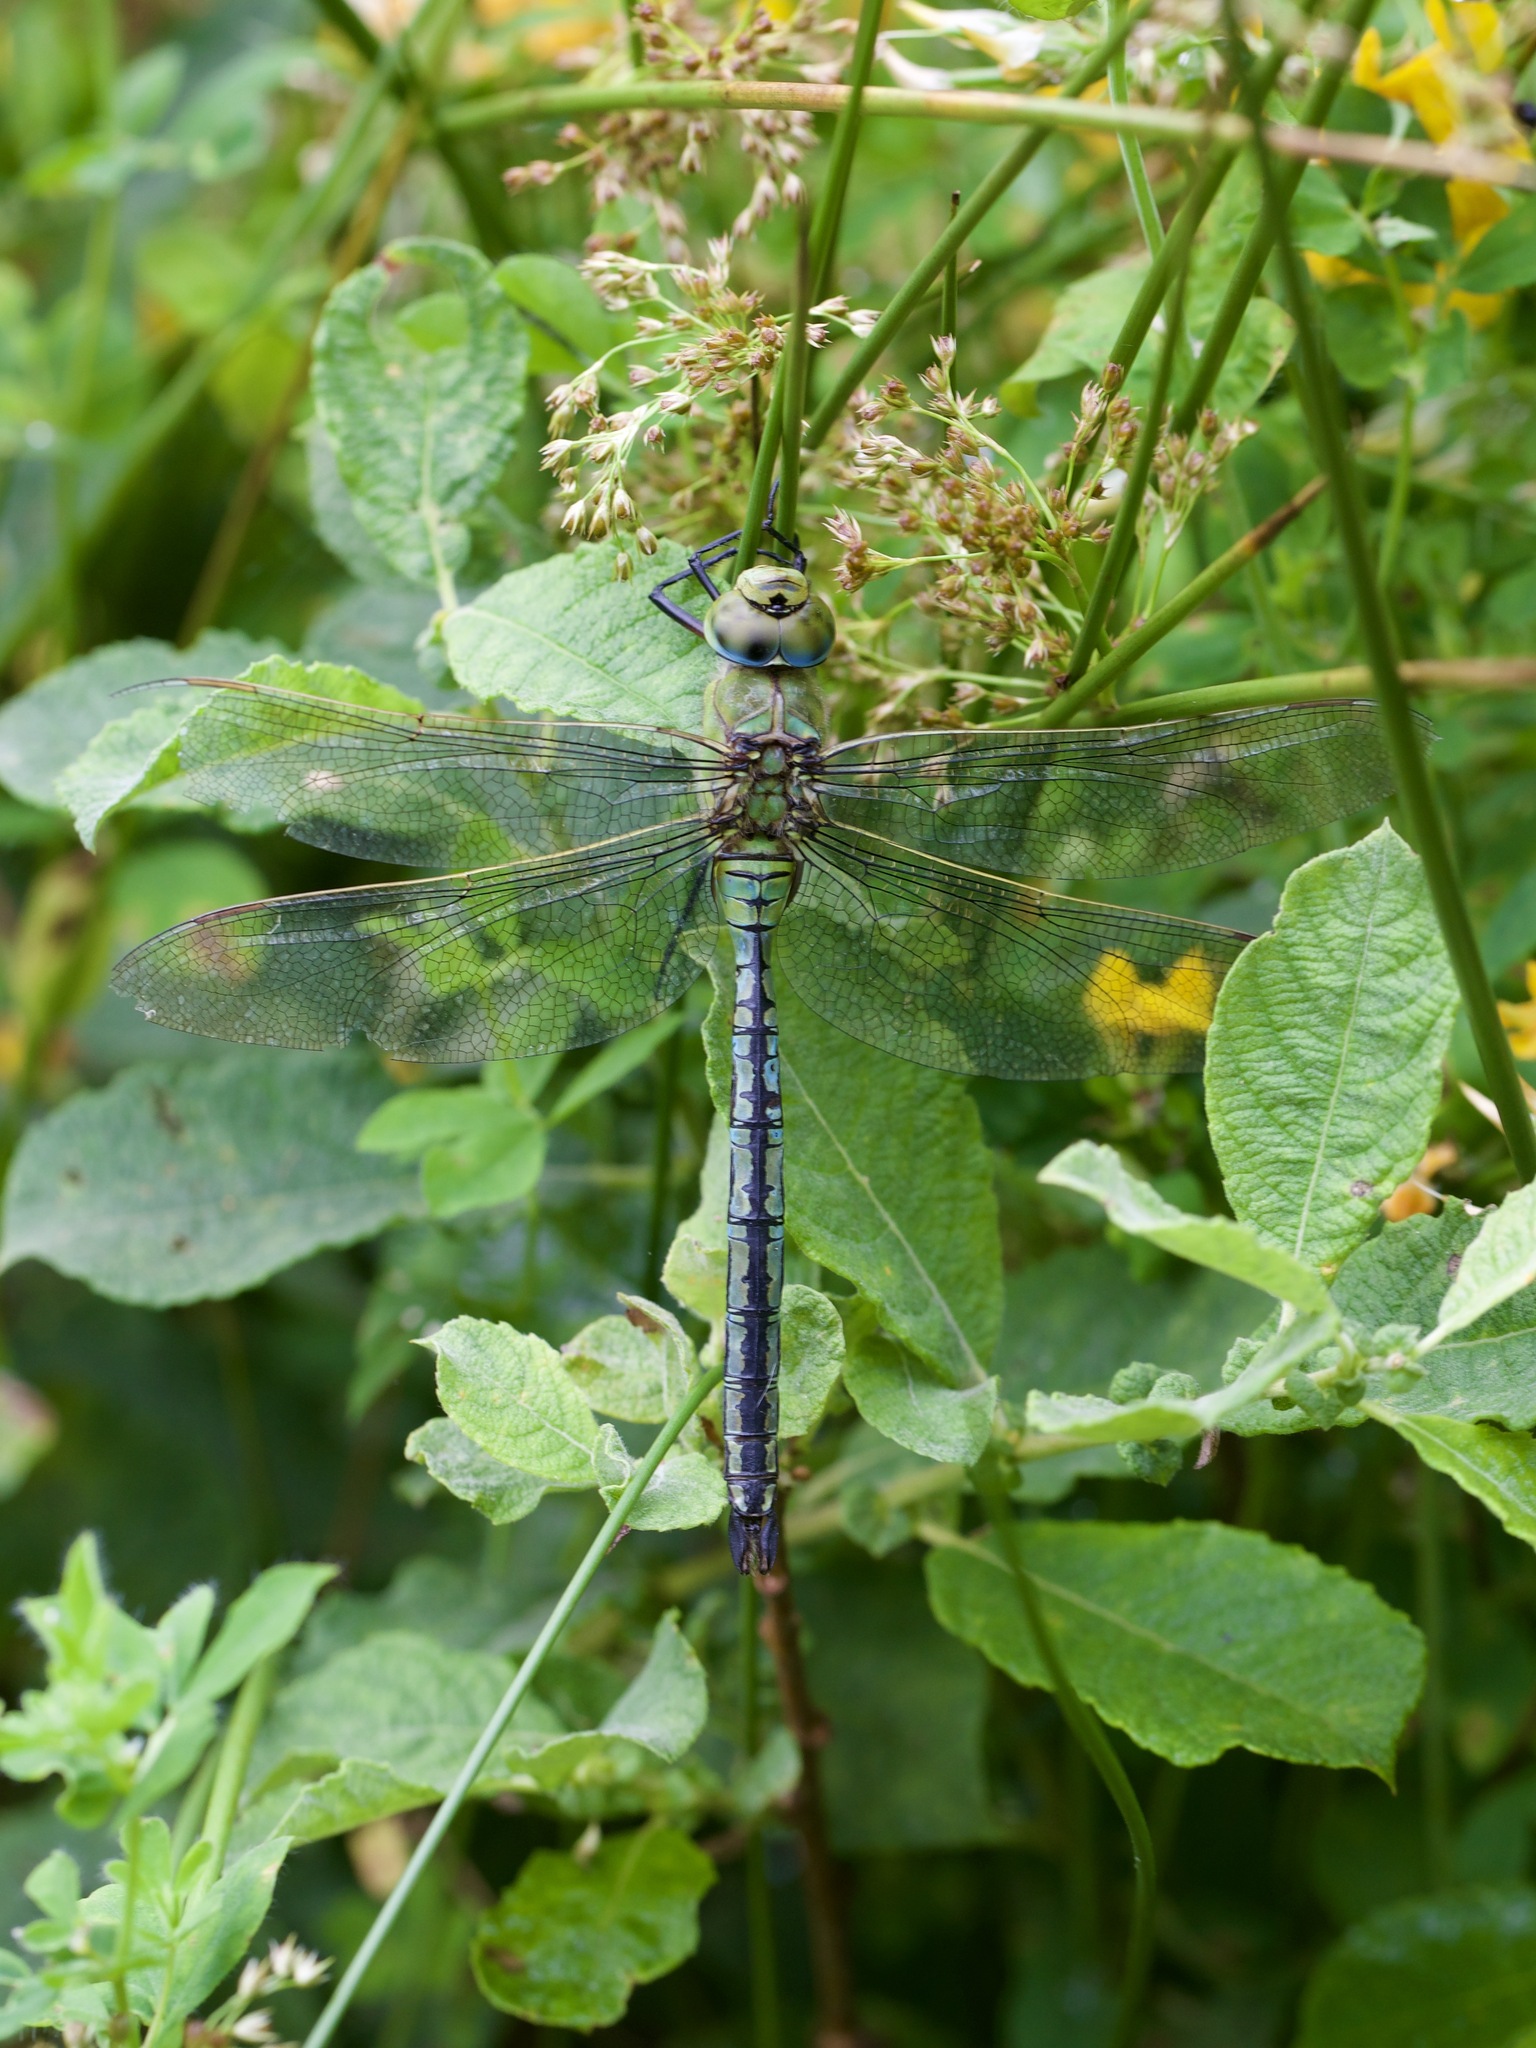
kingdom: Animalia
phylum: Arthropoda
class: Insecta
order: Odonata
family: Aeshnidae
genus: Anax
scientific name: Anax imperator
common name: Emperor dragonfly
